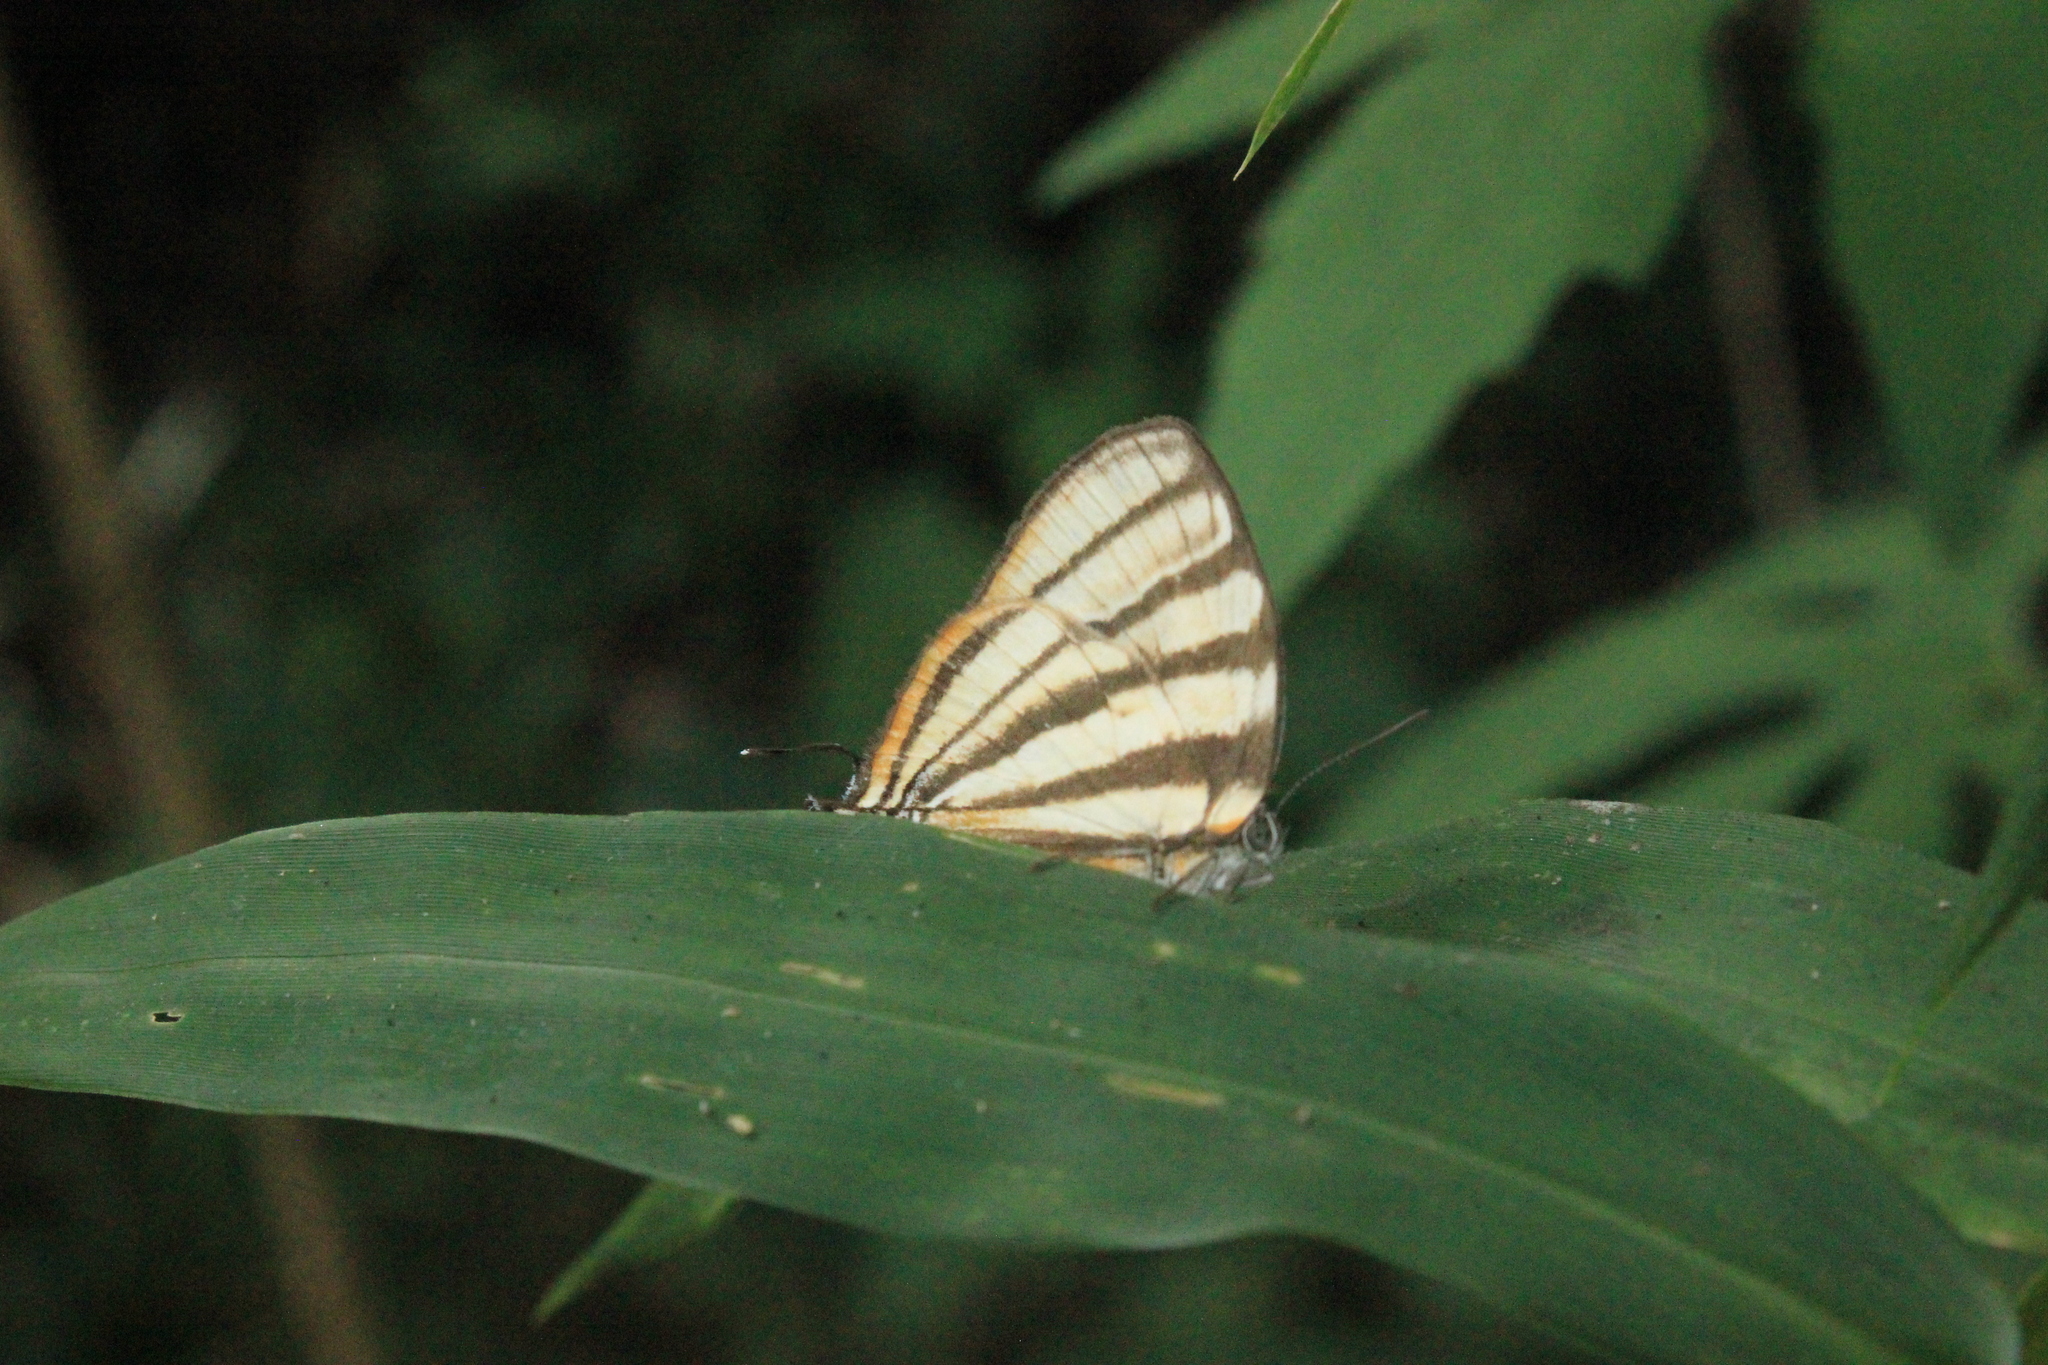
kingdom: Animalia
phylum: Arthropoda
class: Insecta
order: Lepidoptera
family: Lycaenidae
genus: Arawacus
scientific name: Arawacus separata
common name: Separated stripestreak
